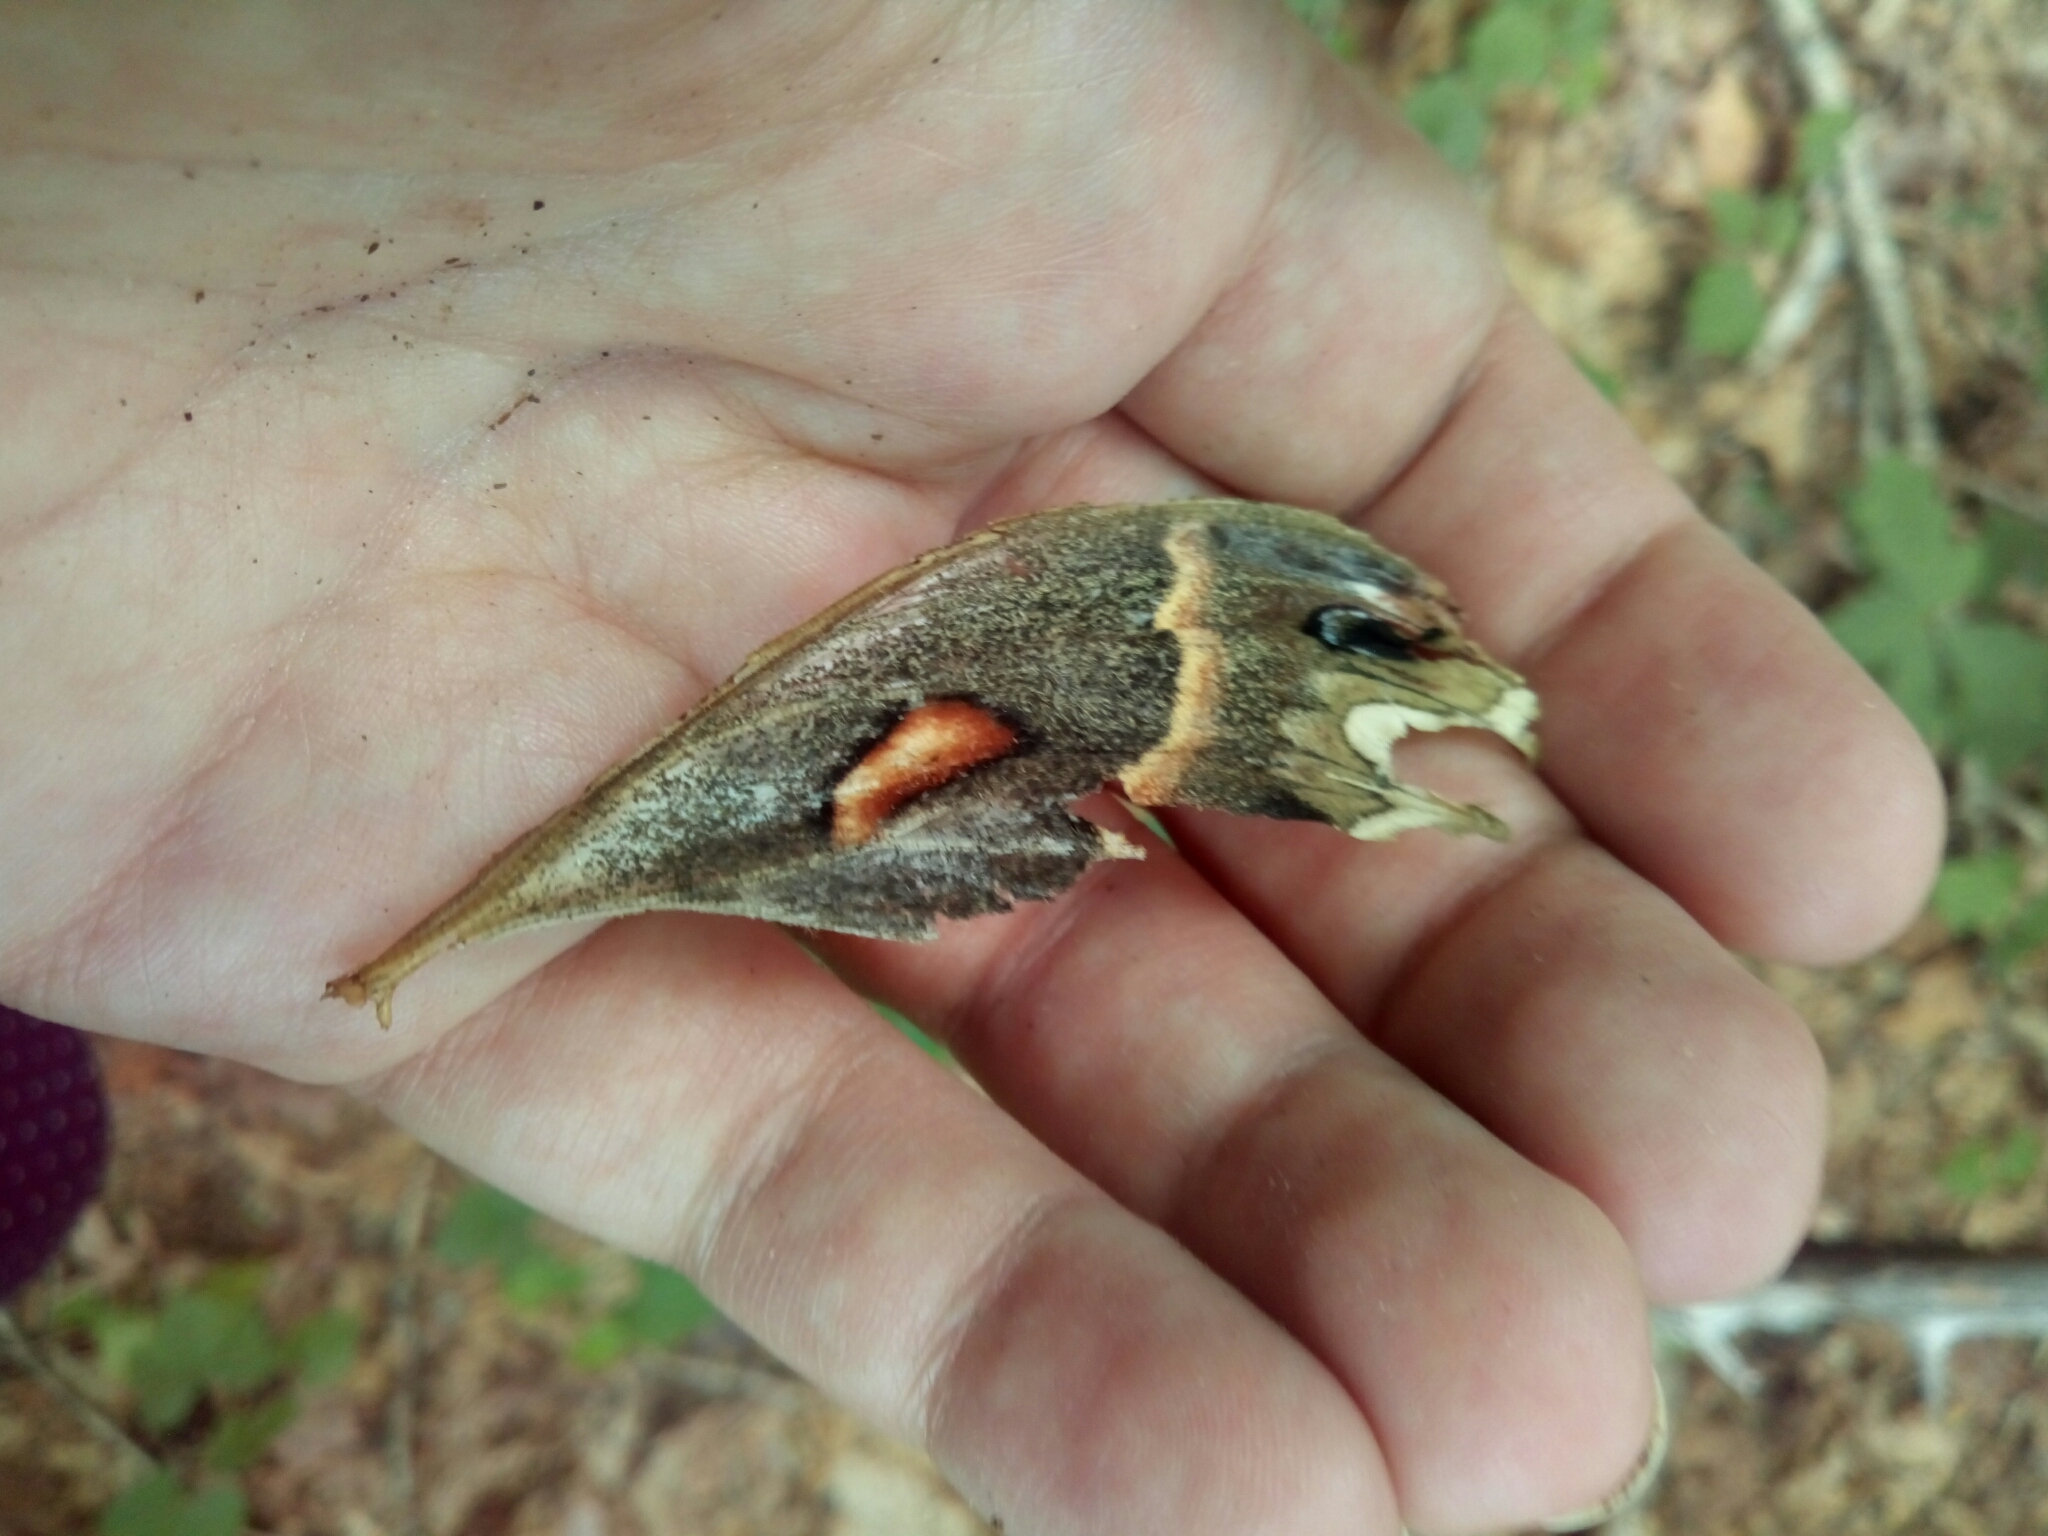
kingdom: Animalia
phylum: Arthropoda
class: Insecta
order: Lepidoptera
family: Saturniidae
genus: Hyalophora
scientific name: Hyalophora cecropia
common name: Cecropia silkmoth
